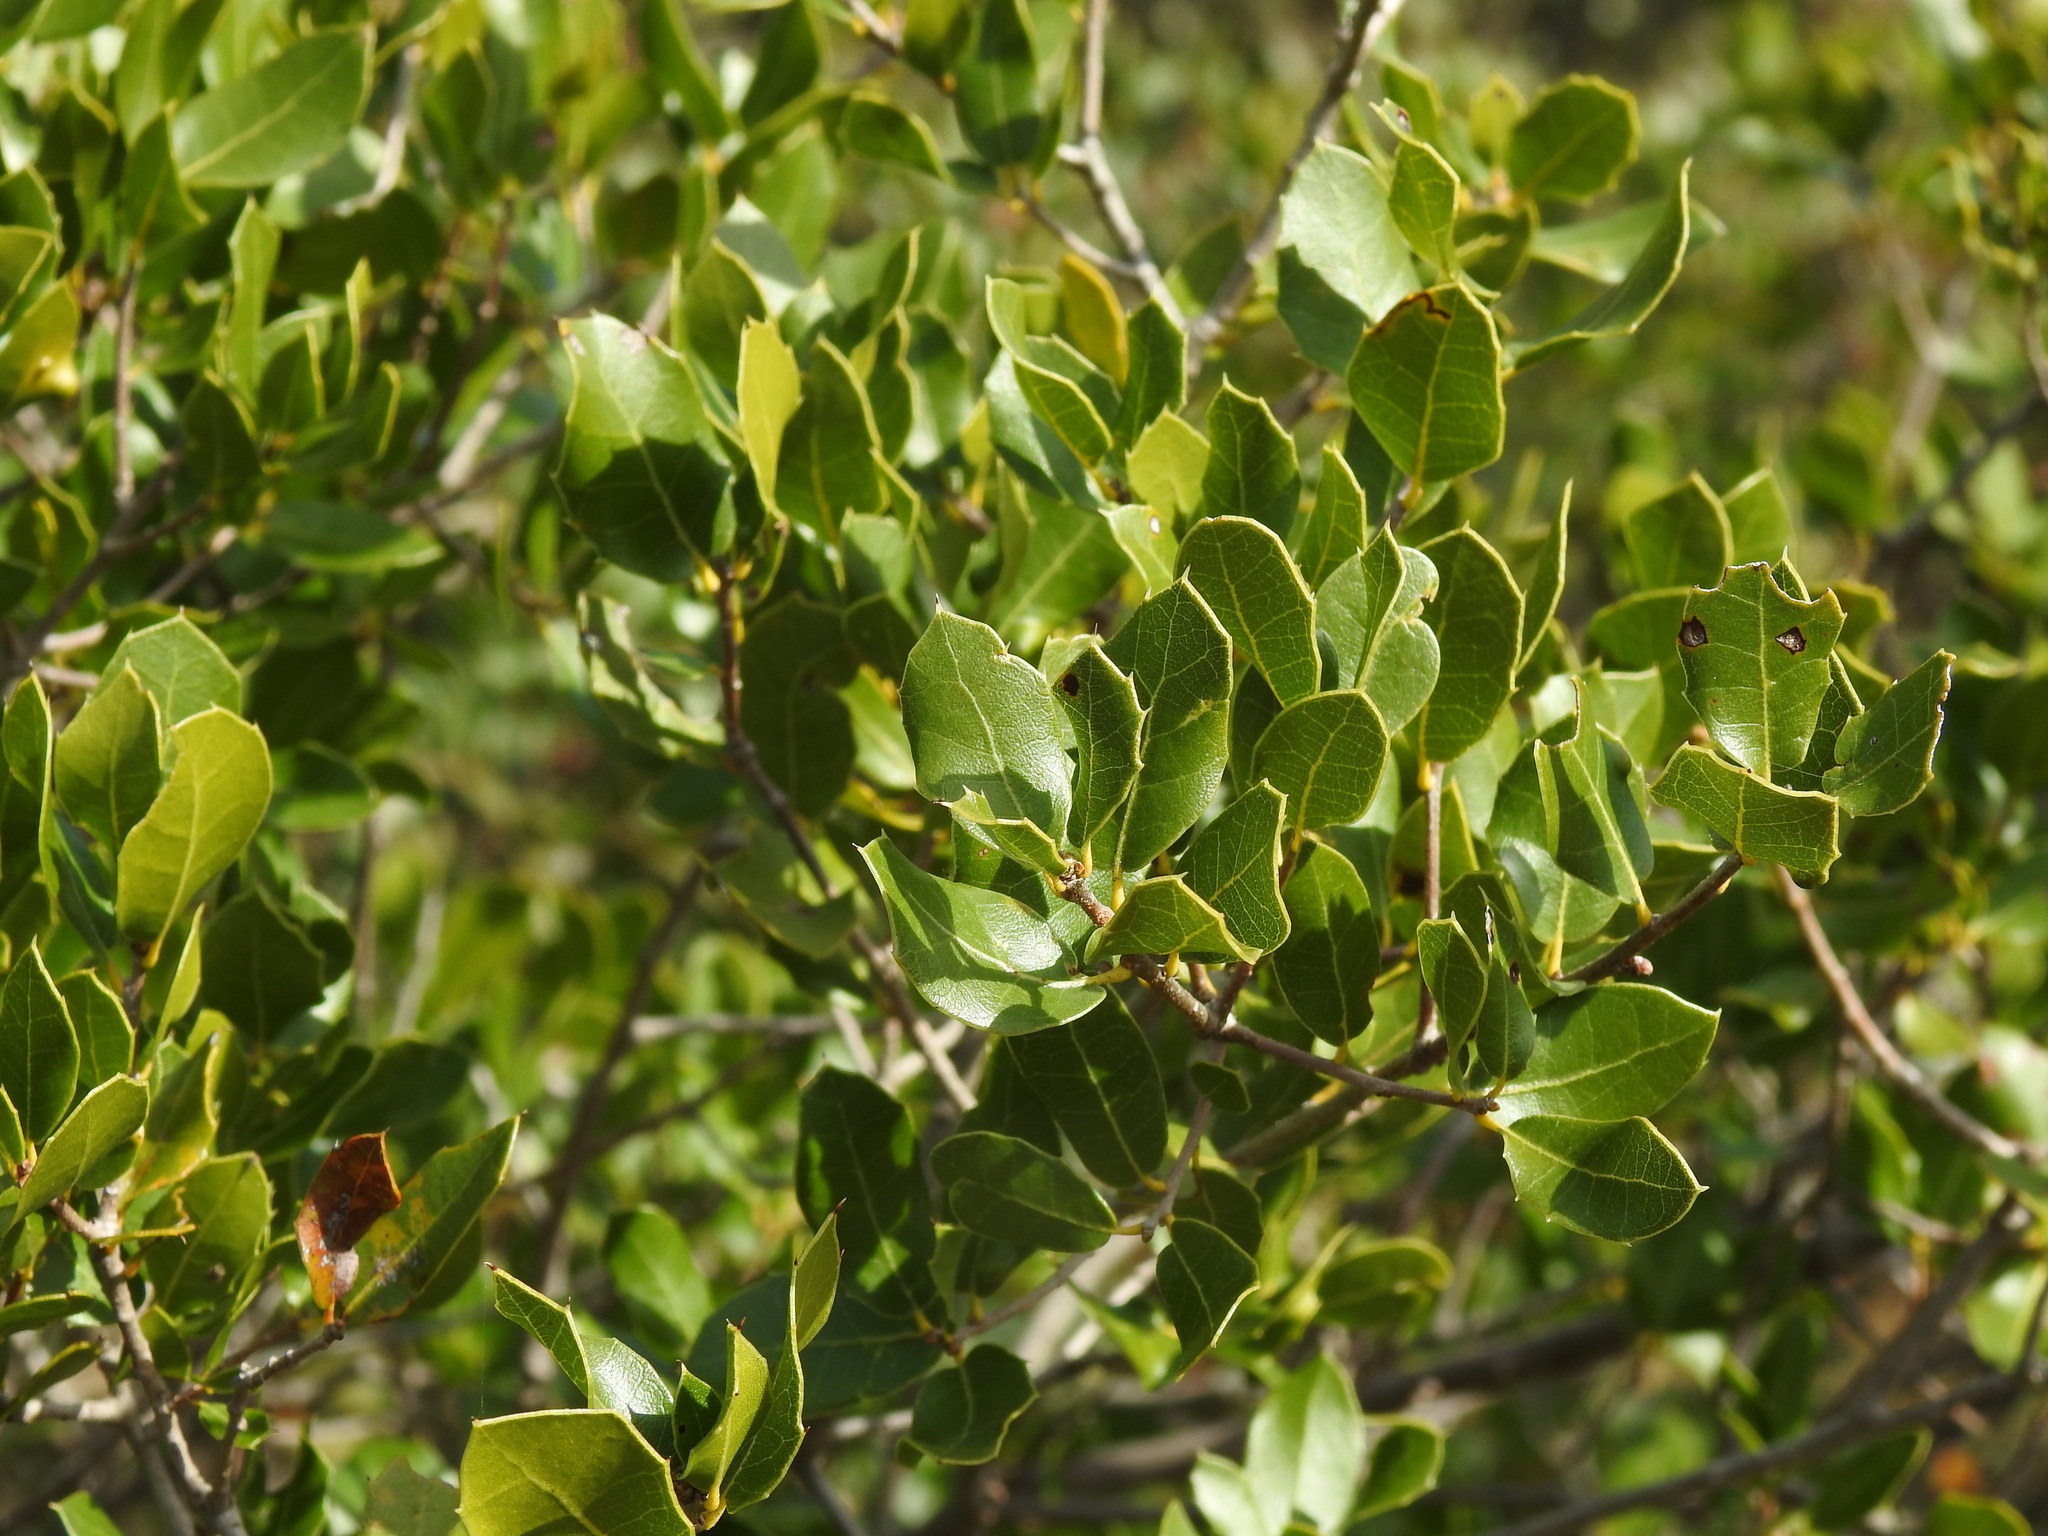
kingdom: Plantae
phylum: Tracheophyta
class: Magnoliopsida
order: Fagales
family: Fagaceae
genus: Quercus
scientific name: Quercus coccifera
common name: Kermes oak
